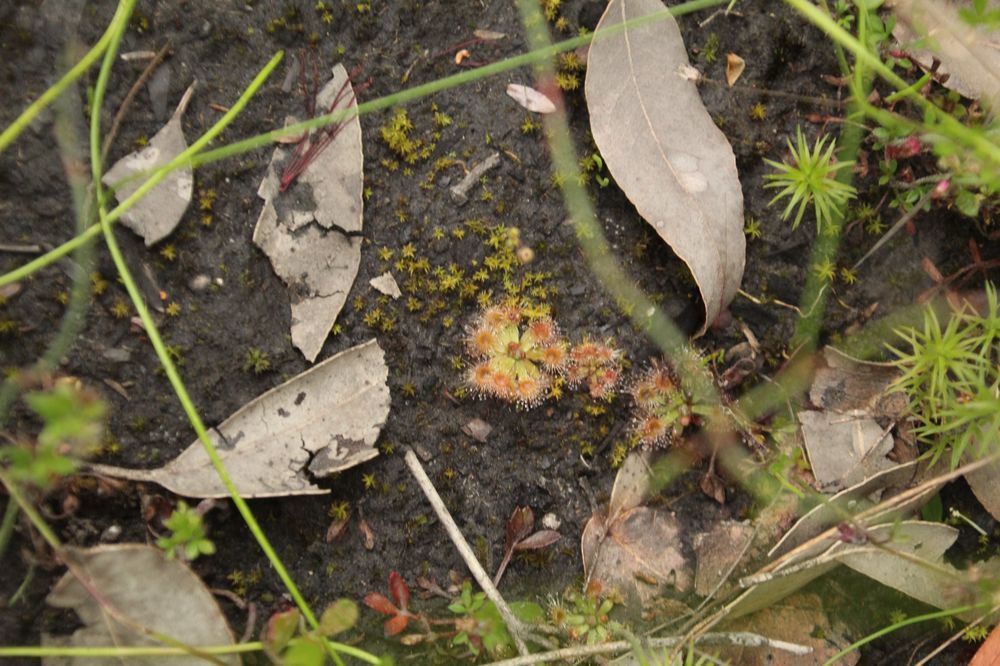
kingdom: Plantae
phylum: Tracheophyta
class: Magnoliopsida
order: Caryophyllales
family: Droseraceae
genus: Drosera
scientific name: Drosera pulchella
